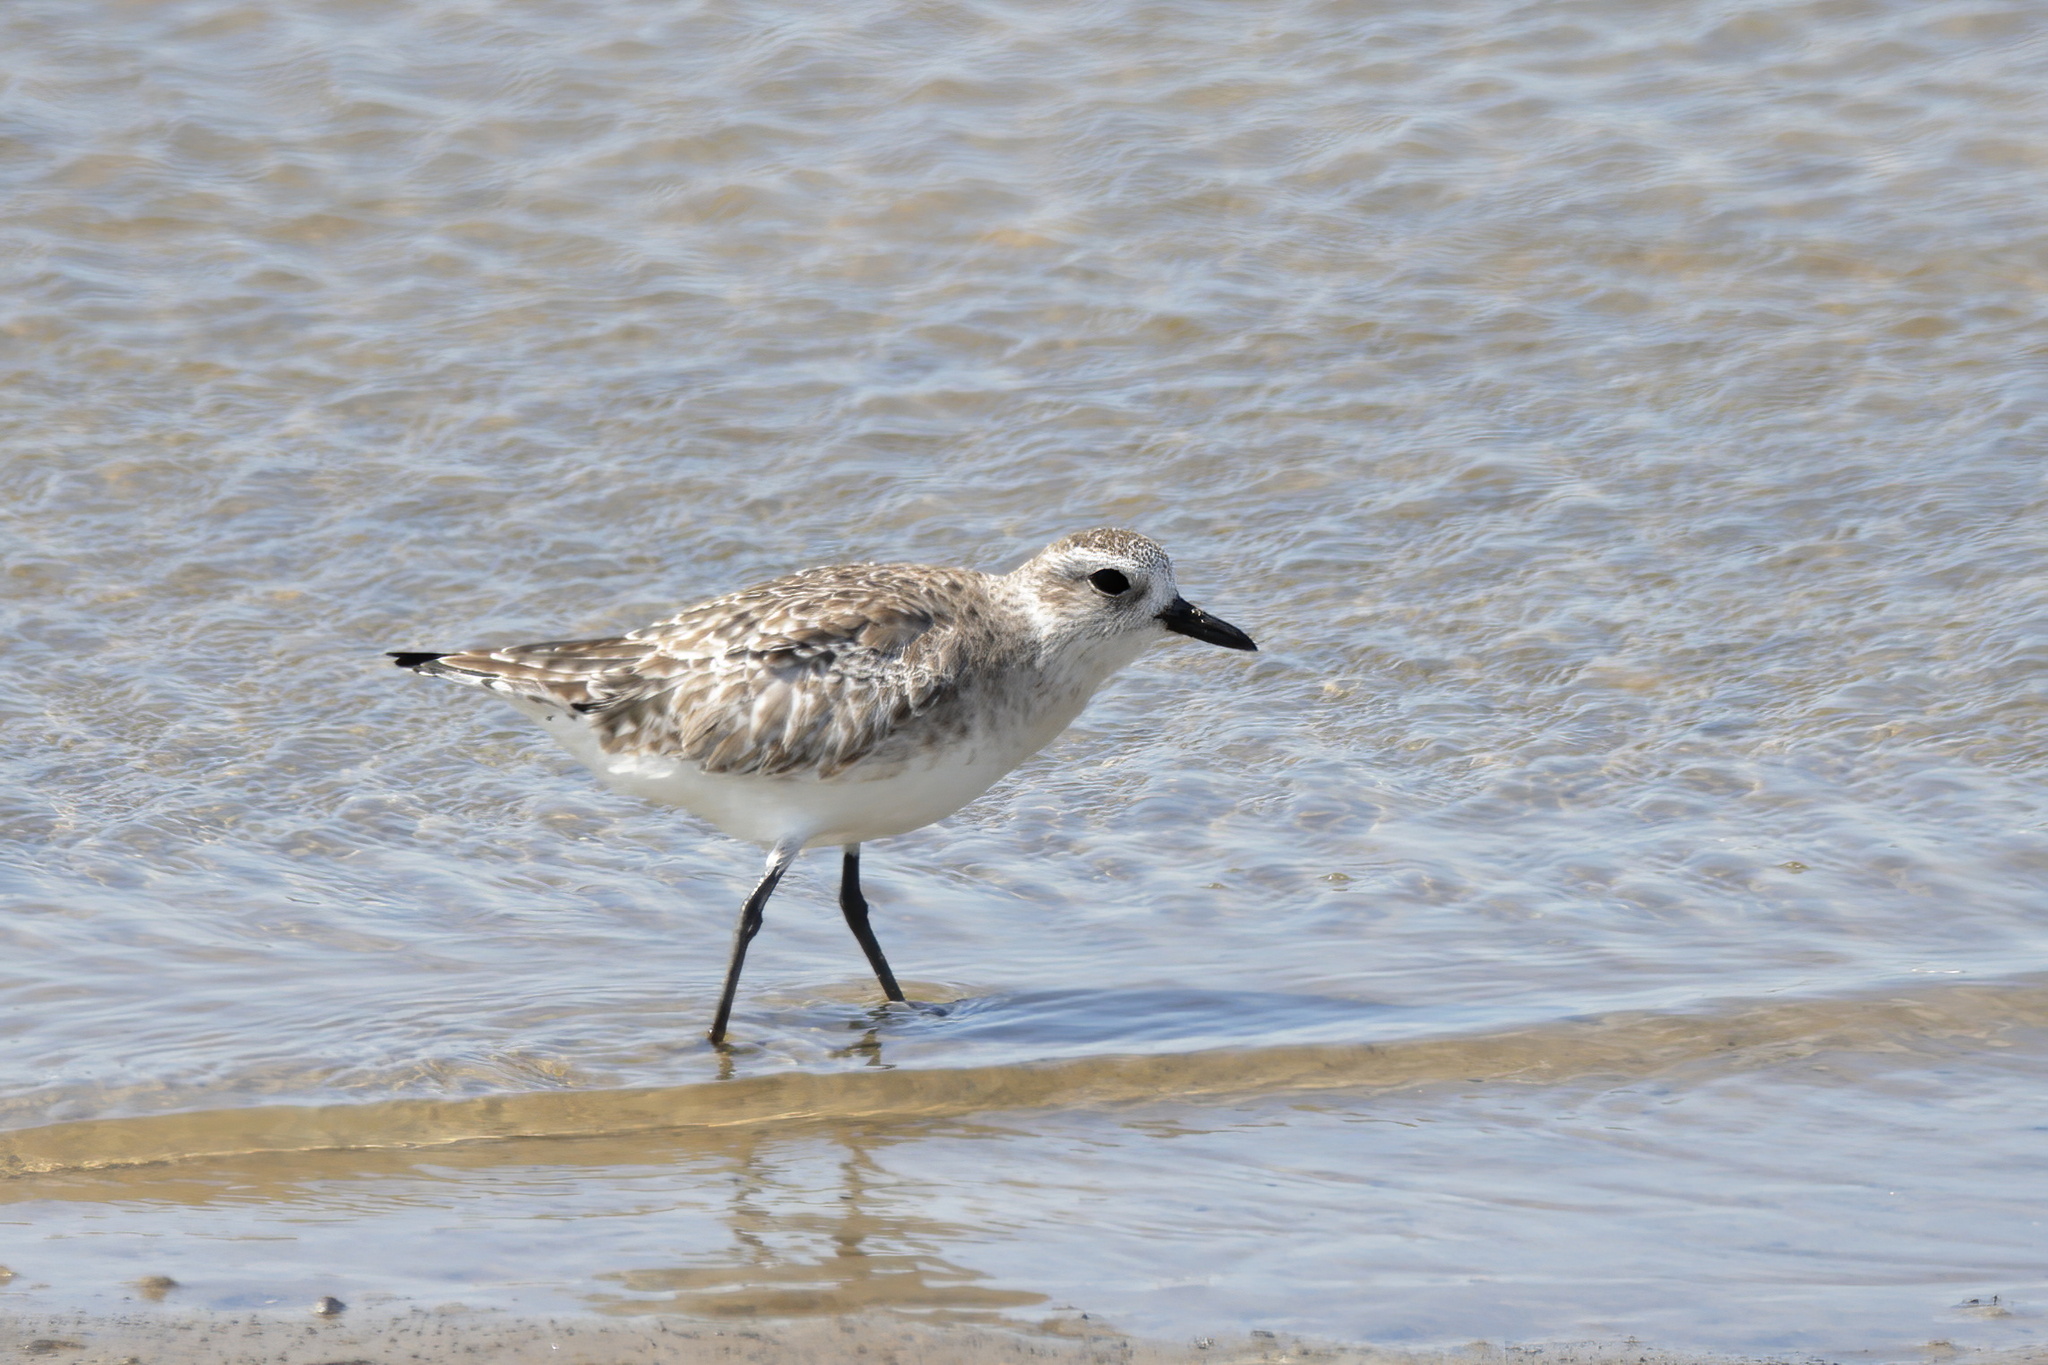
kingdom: Animalia
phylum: Chordata
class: Aves
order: Charadriiformes
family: Charadriidae
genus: Pluvialis
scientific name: Pluvialis squatarola
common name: Grey plover
